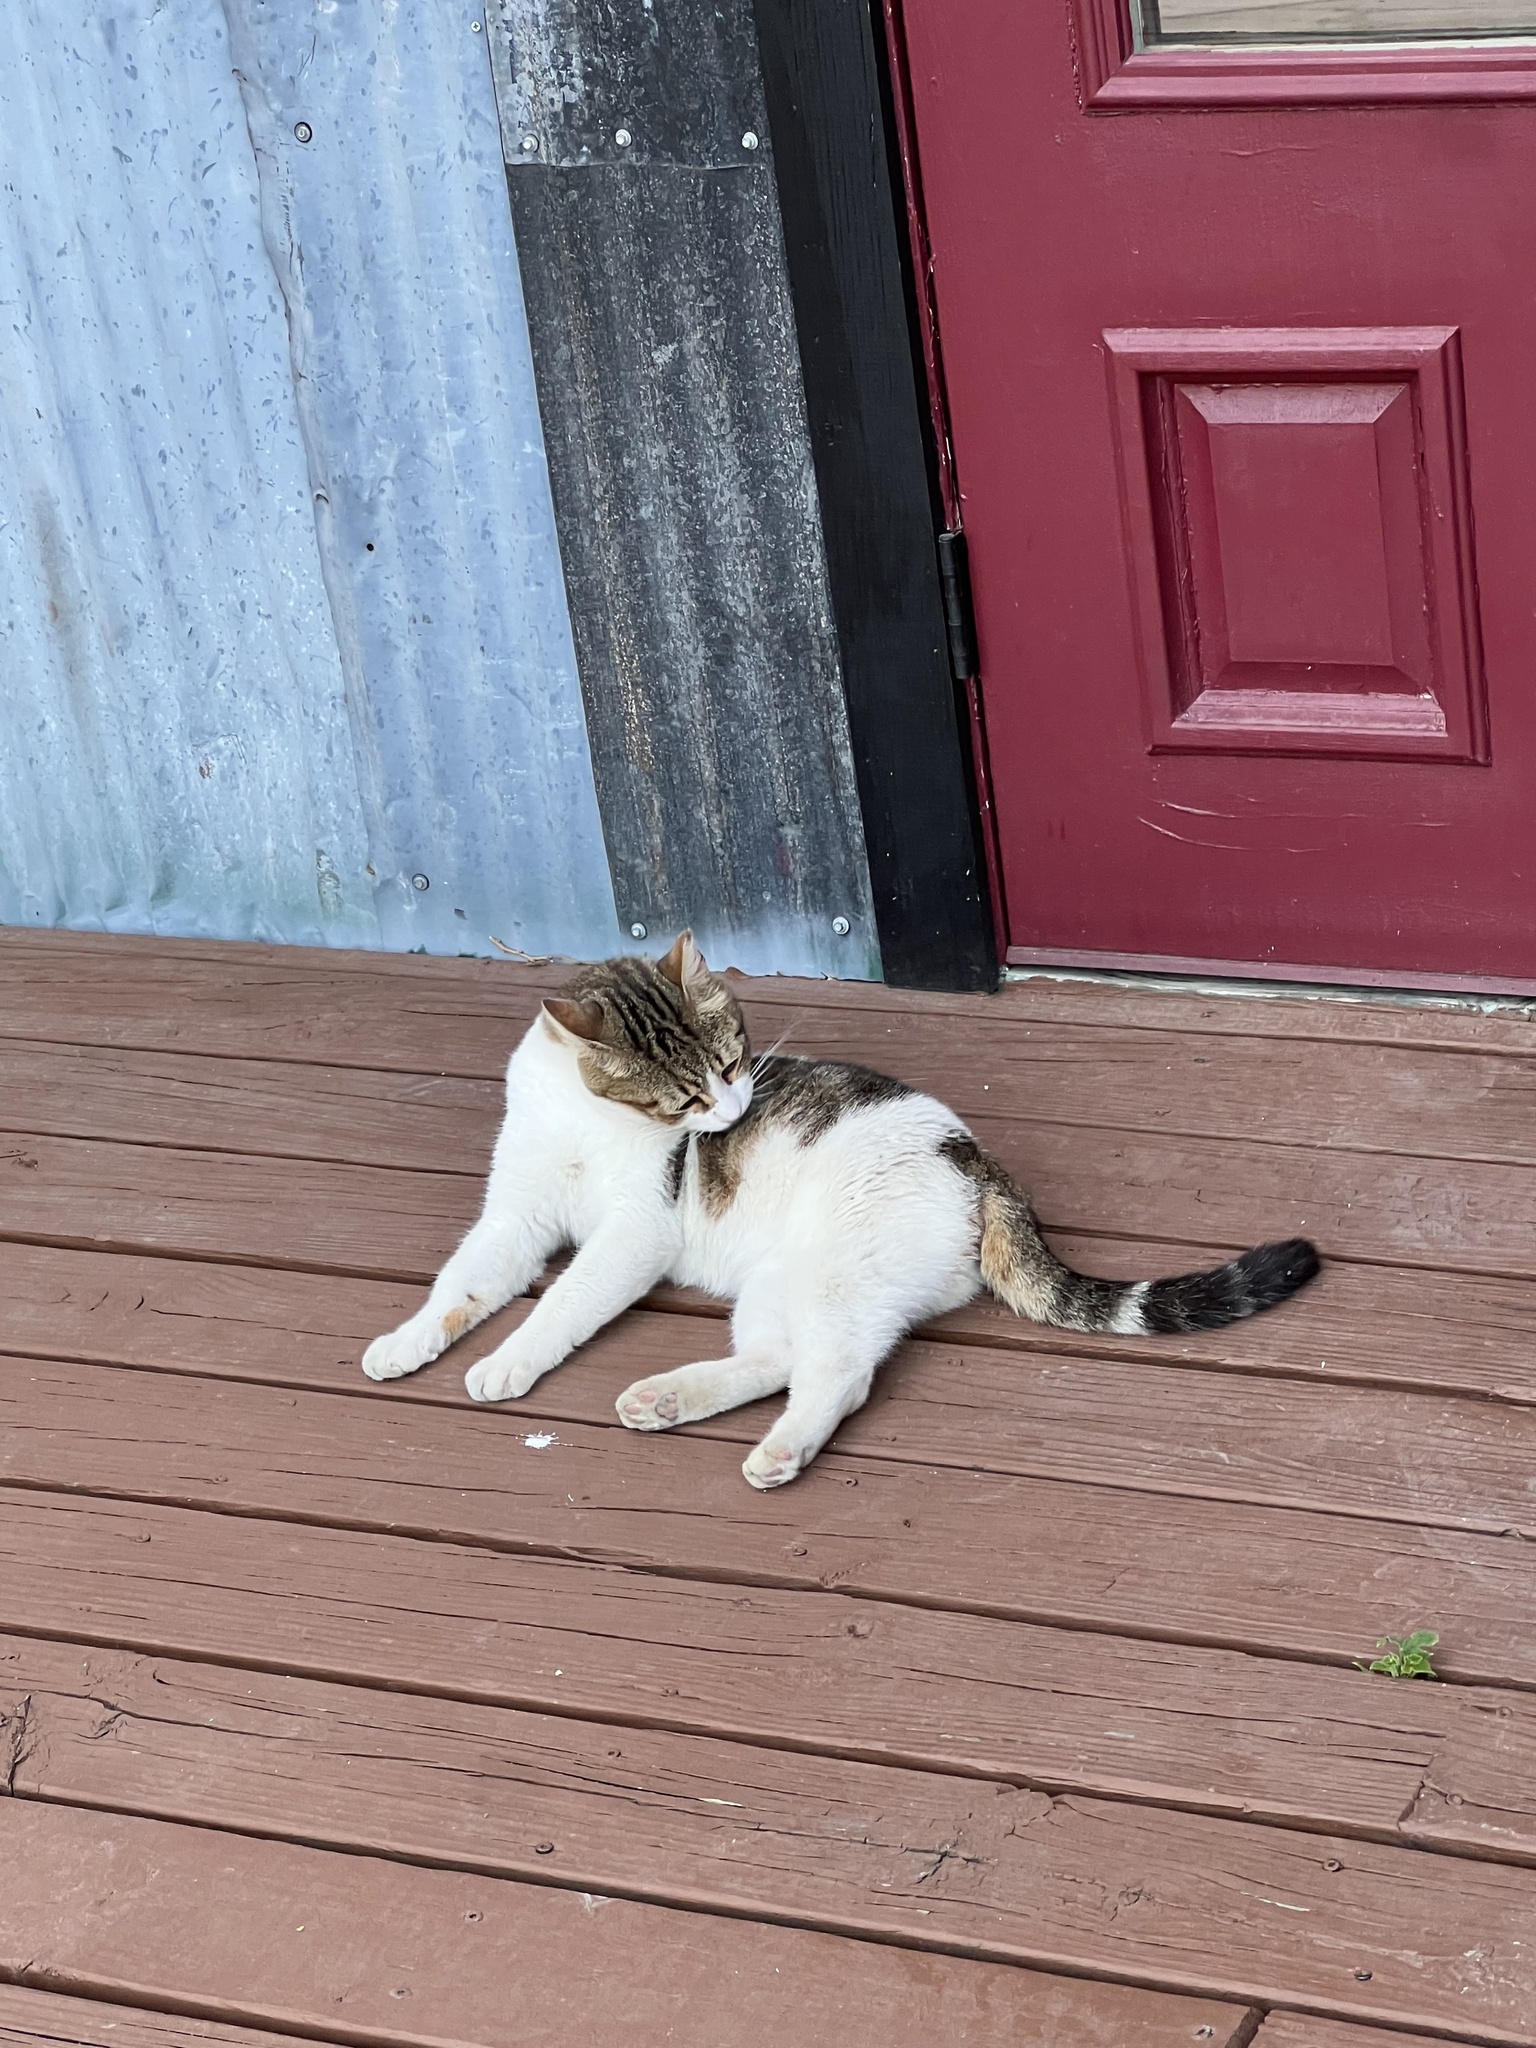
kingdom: Animalia
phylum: Chordata
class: Mammalia
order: Carnivora
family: Felidae
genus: Felis
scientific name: Felis catus
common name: Domestic cat
